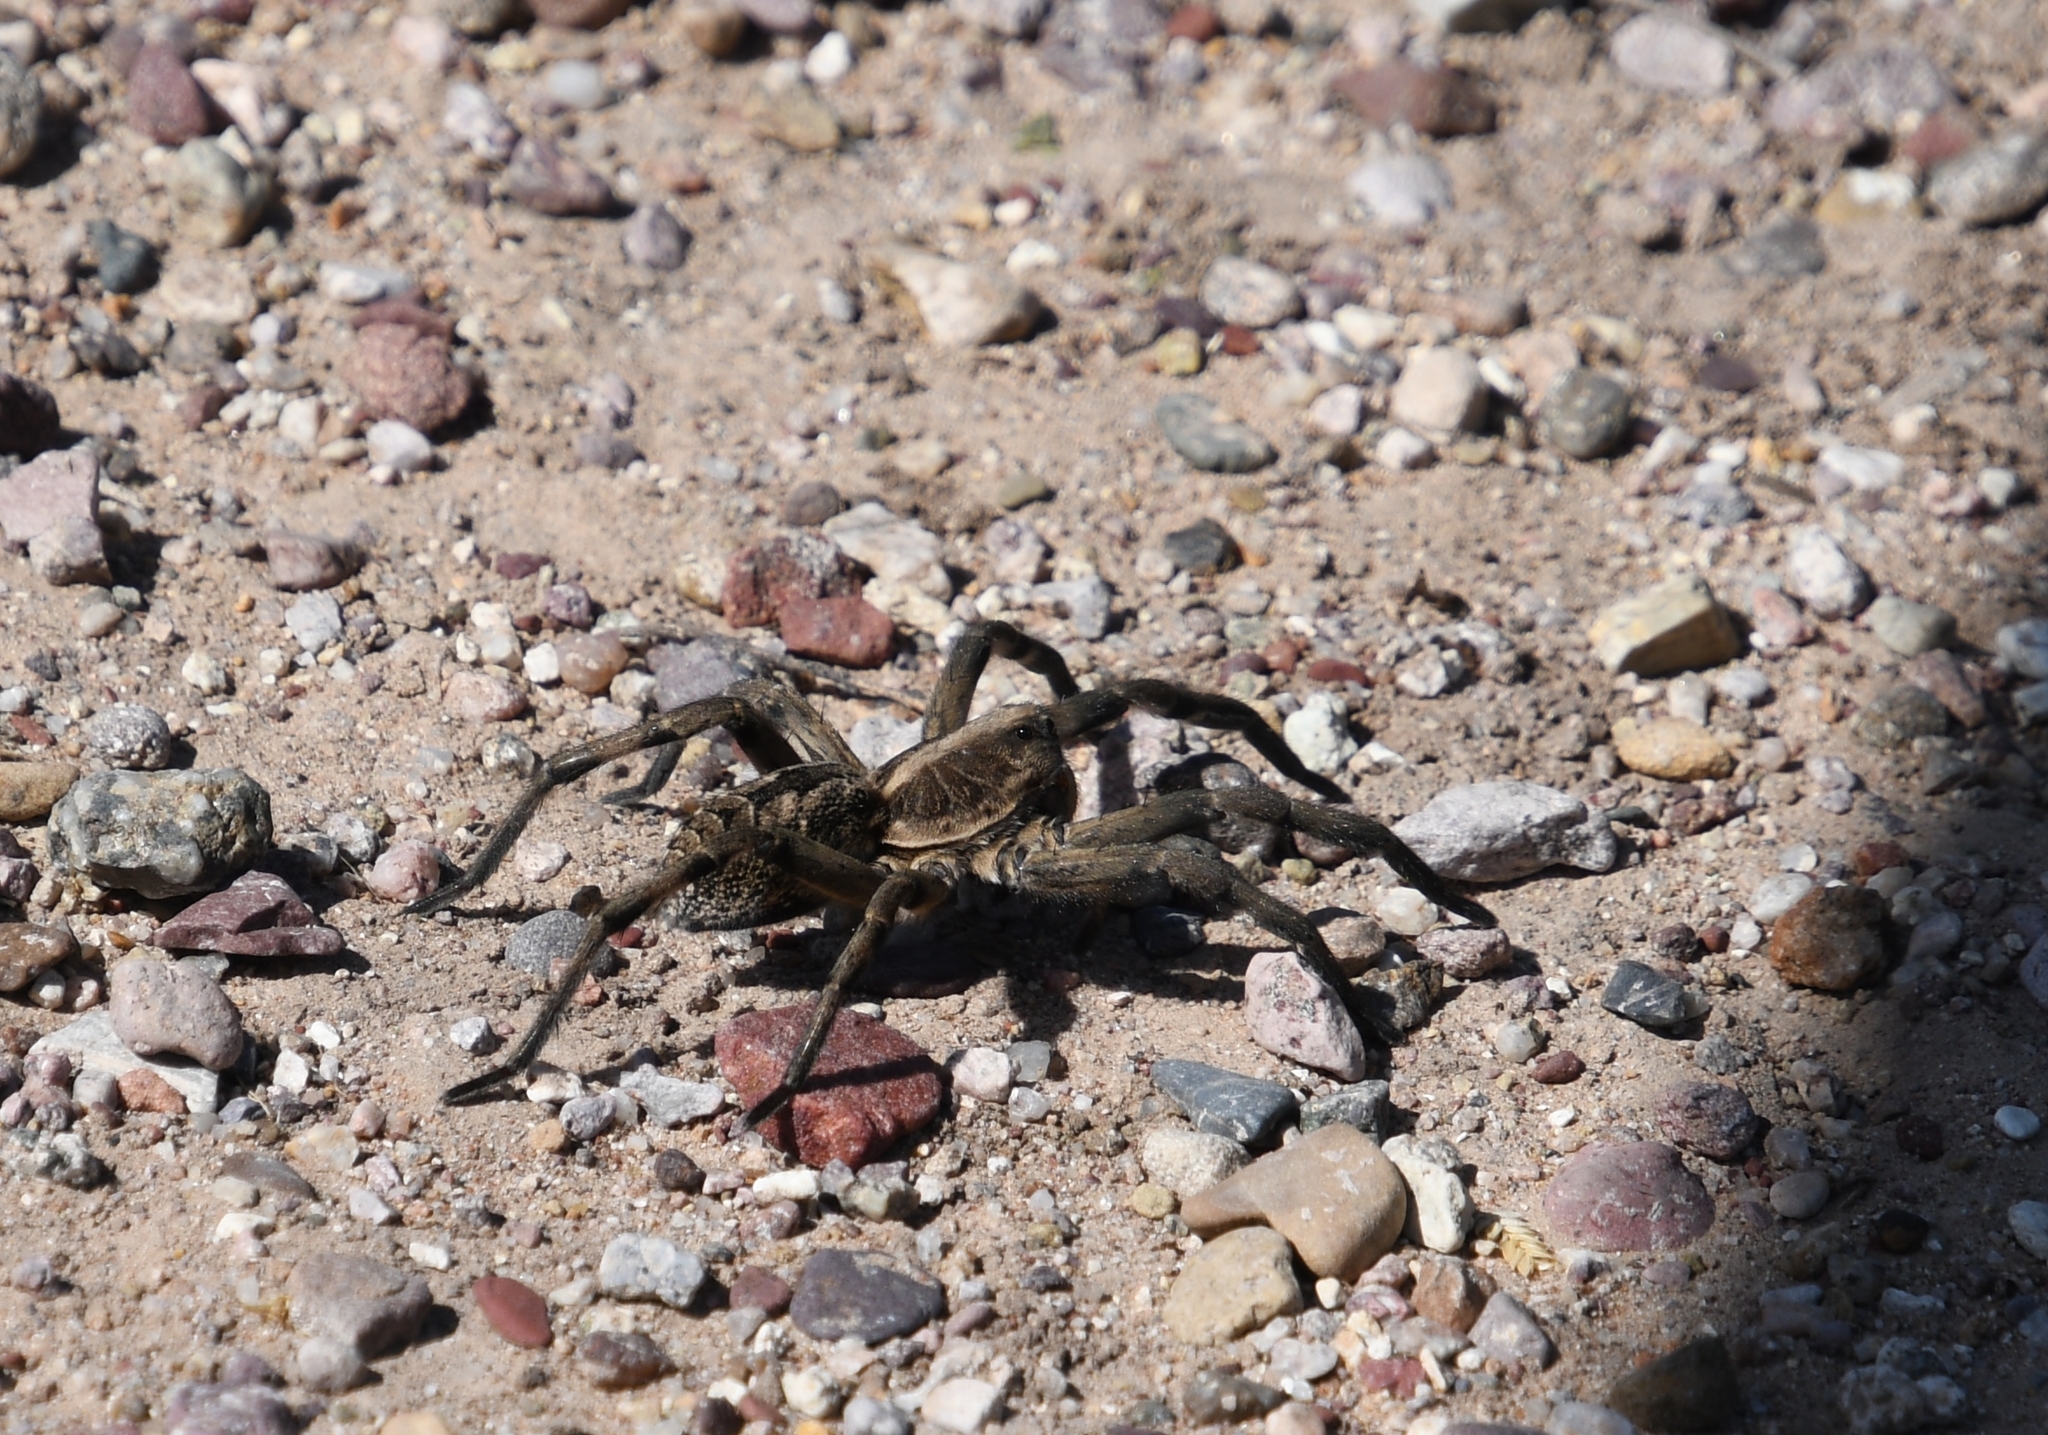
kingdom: Animalia
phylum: Arthropoda
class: Arachnida
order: Araneae
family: Lycosidae
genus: Hogna
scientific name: Hogna carolinensis
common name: Carolina wolf spider
